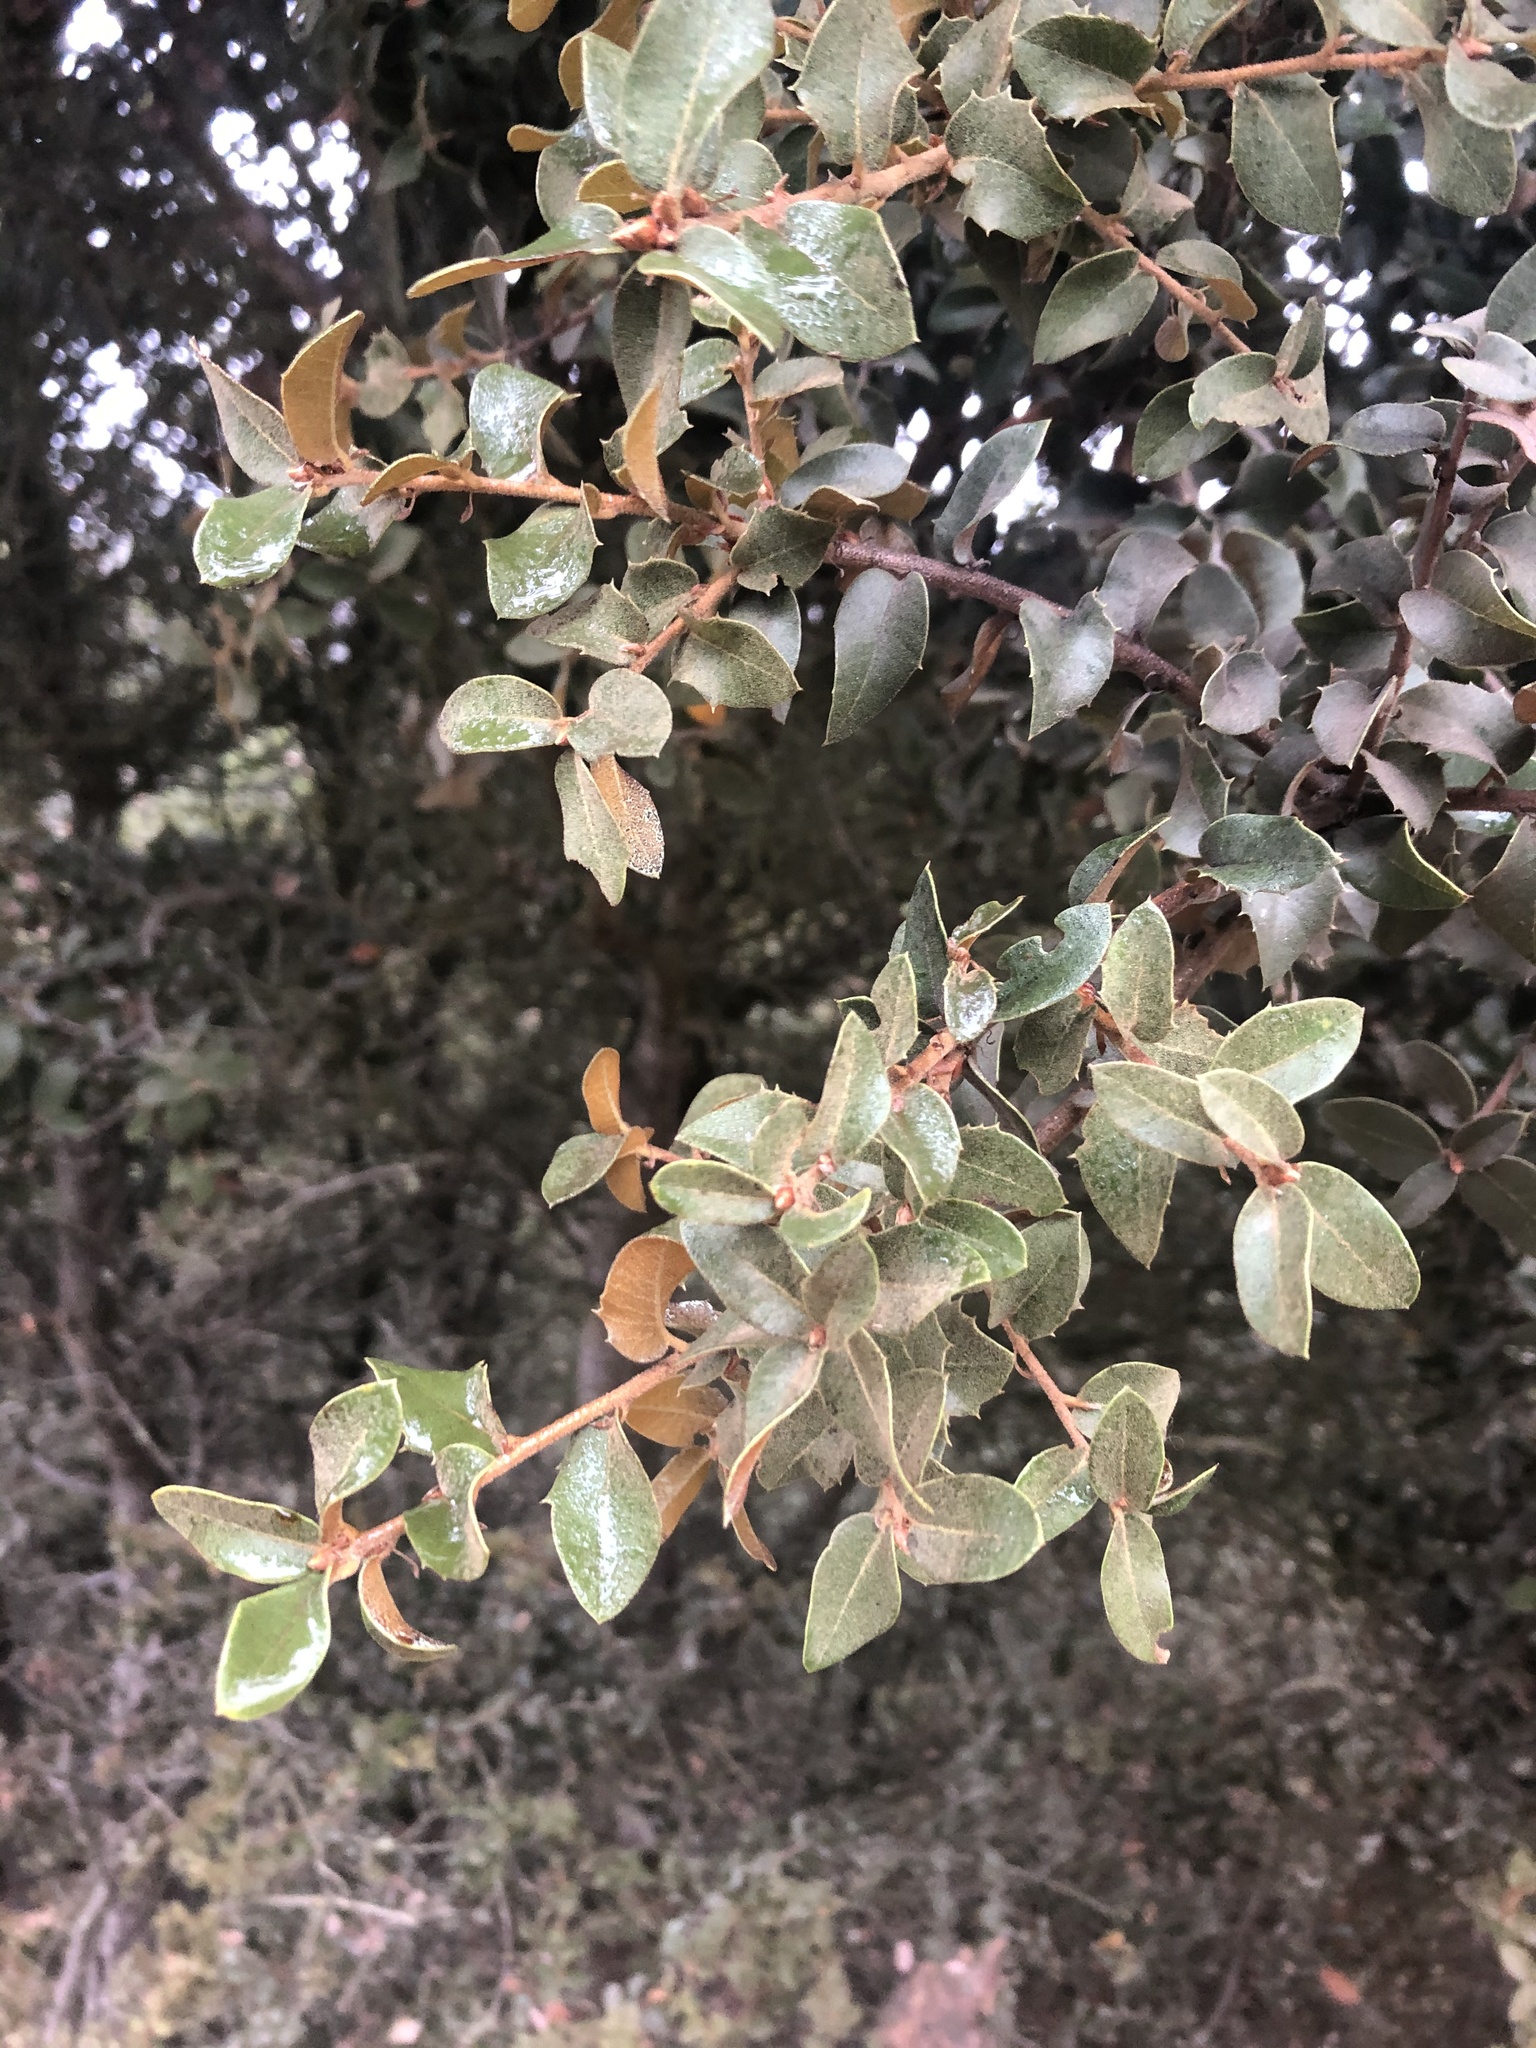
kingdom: Plantae
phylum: Tracheophyta
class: Magnoliopsida
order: Fagales
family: Fagaceae
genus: Quercus
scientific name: Quercus chrysolepis
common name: Canyon live oak
